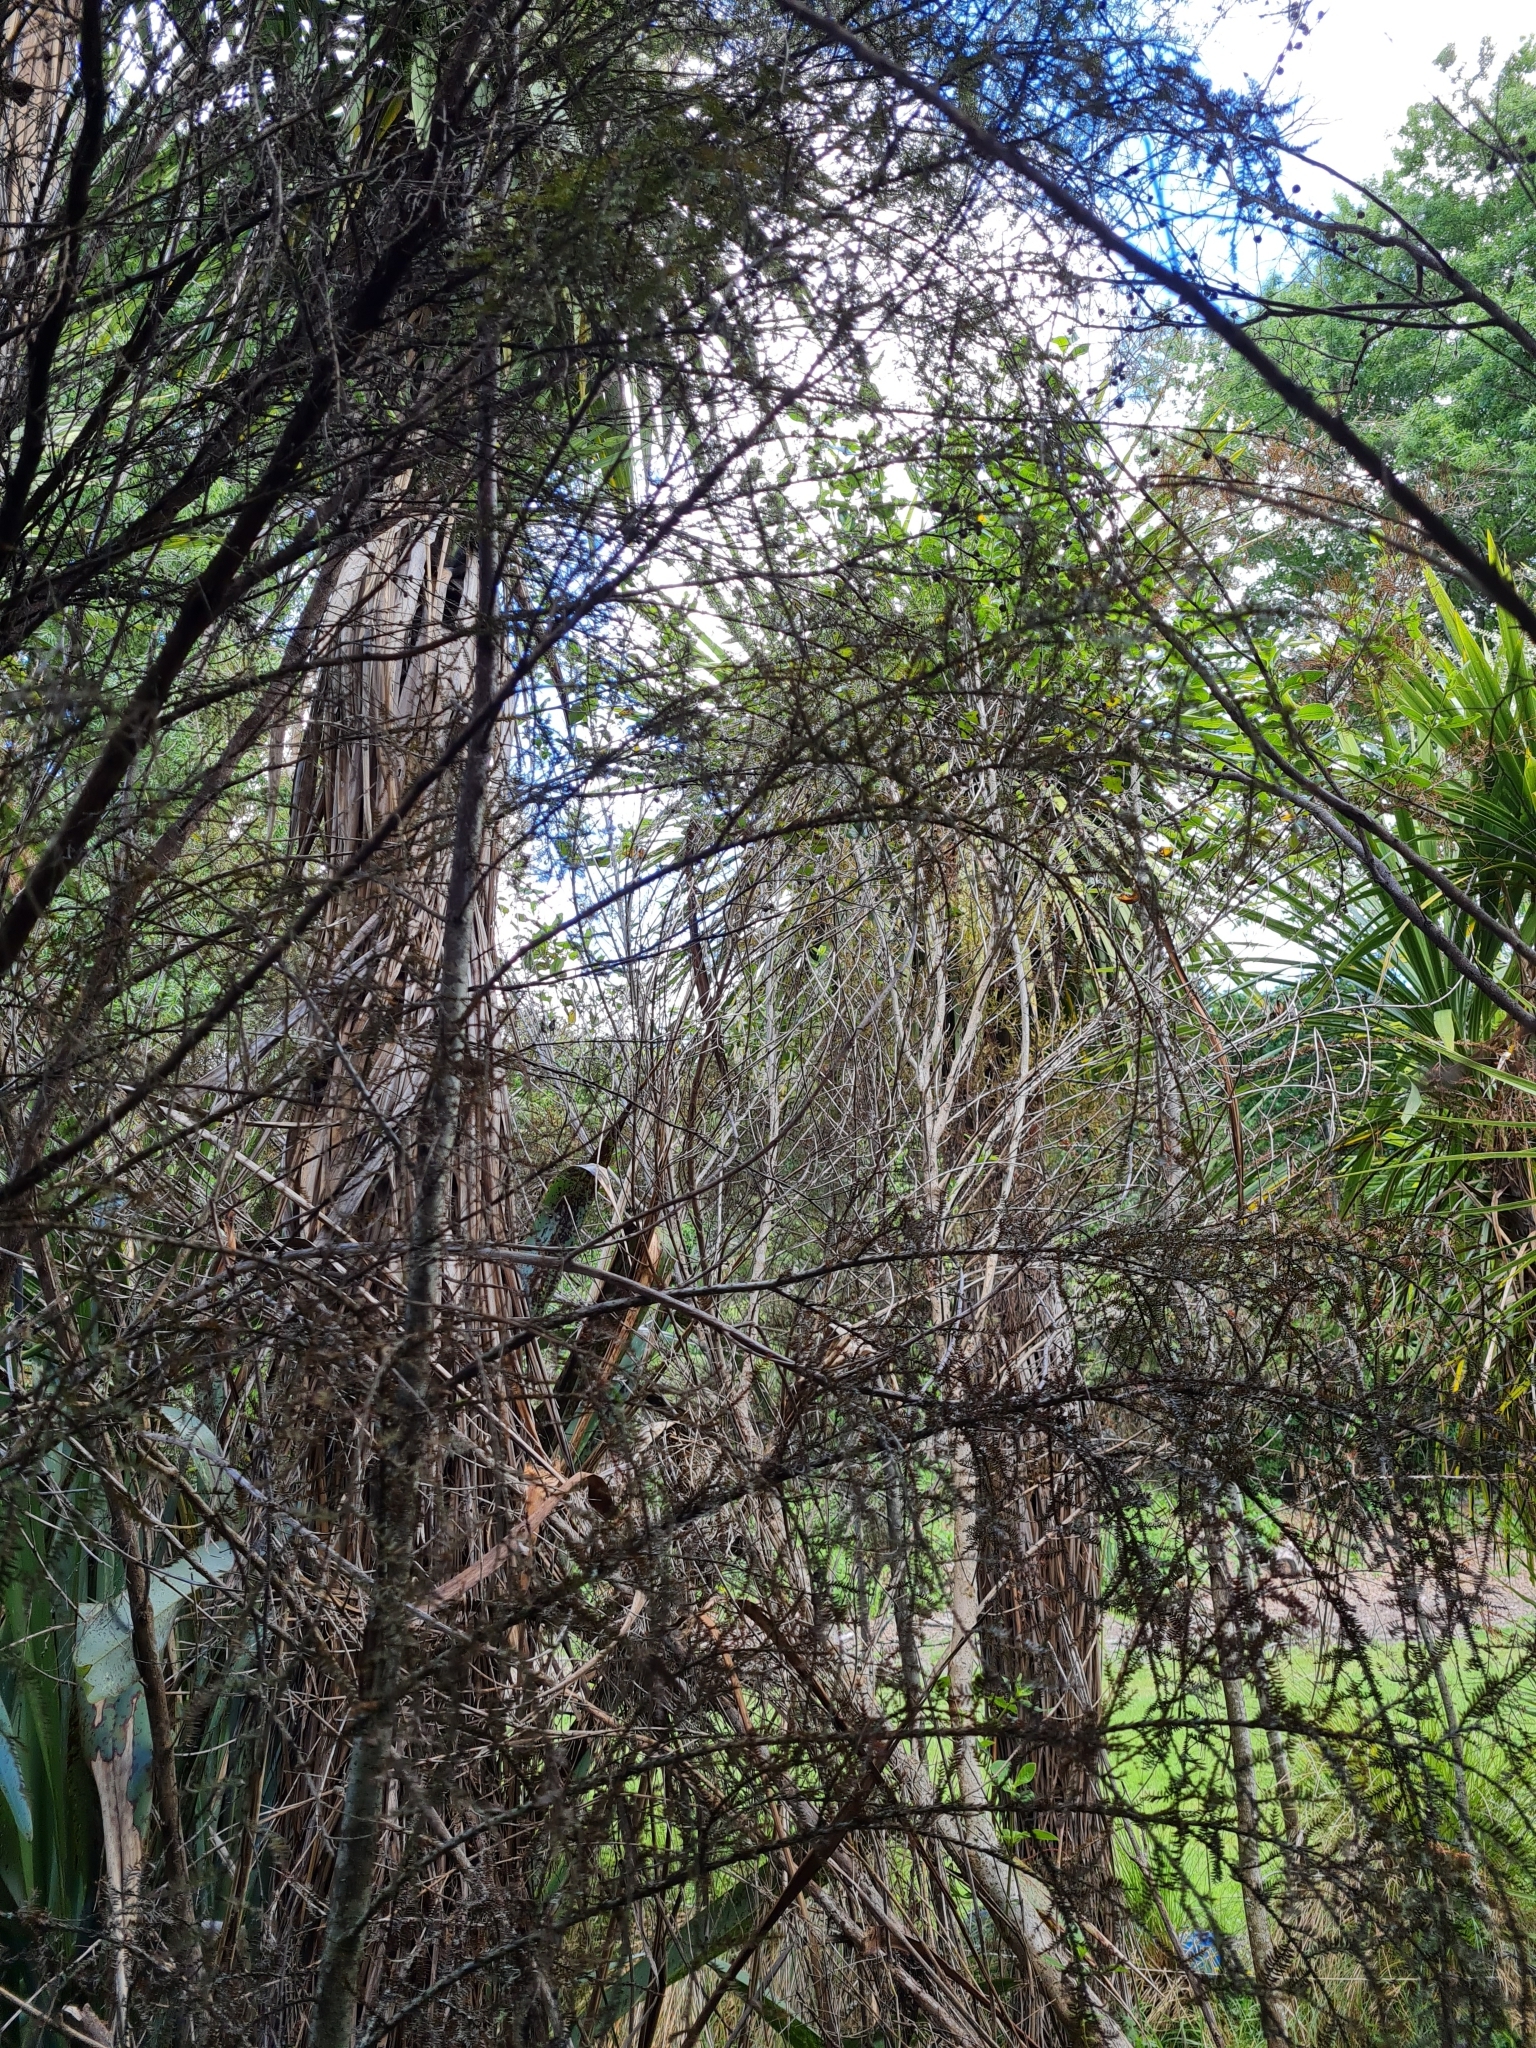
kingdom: Plantae
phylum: Tracheophyta
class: Pinopsida
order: Pinales
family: Podocarpaceae
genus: Dacrycarpus
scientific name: Dacrycarpus dacrydioides
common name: White pine
